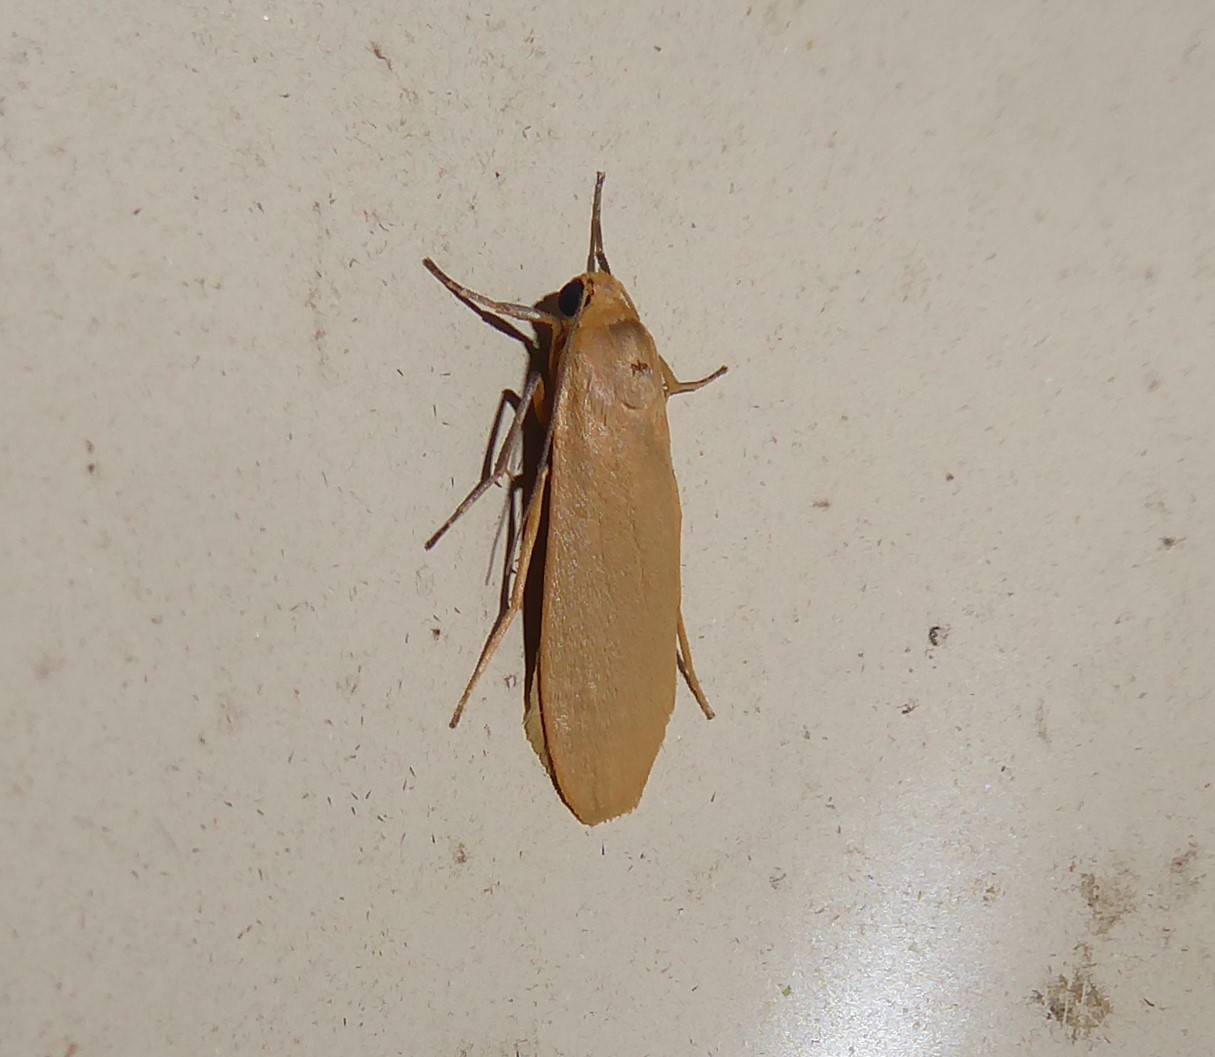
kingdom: Animalia
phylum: Arthropoda
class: Insecta
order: Lepidoptera
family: Erebidae
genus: Eilema
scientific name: Eilema plana
